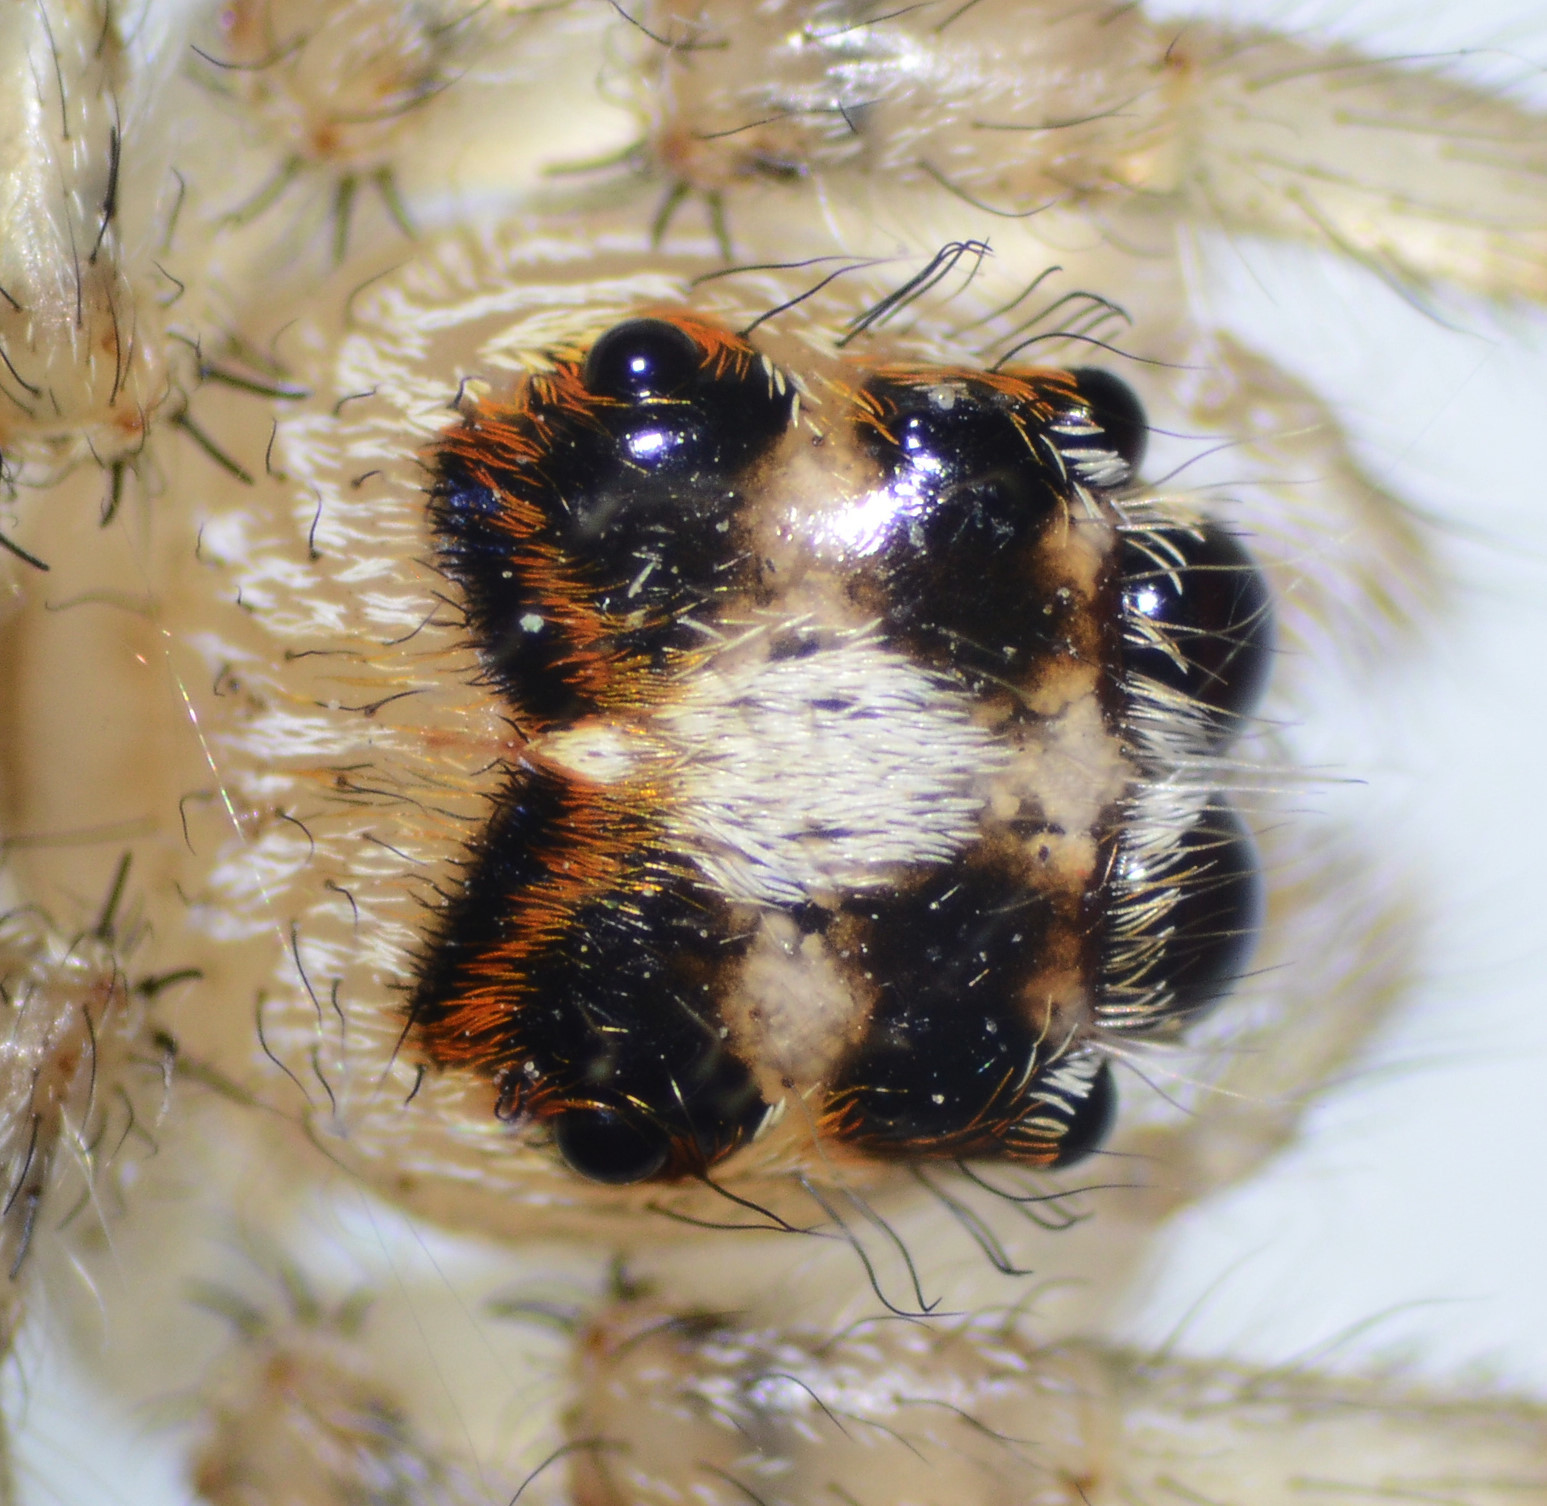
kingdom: Animalia
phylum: Arthropoda
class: Arachnida
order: Araneae
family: Salticidae
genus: Colonus
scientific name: Colonus hesperus
